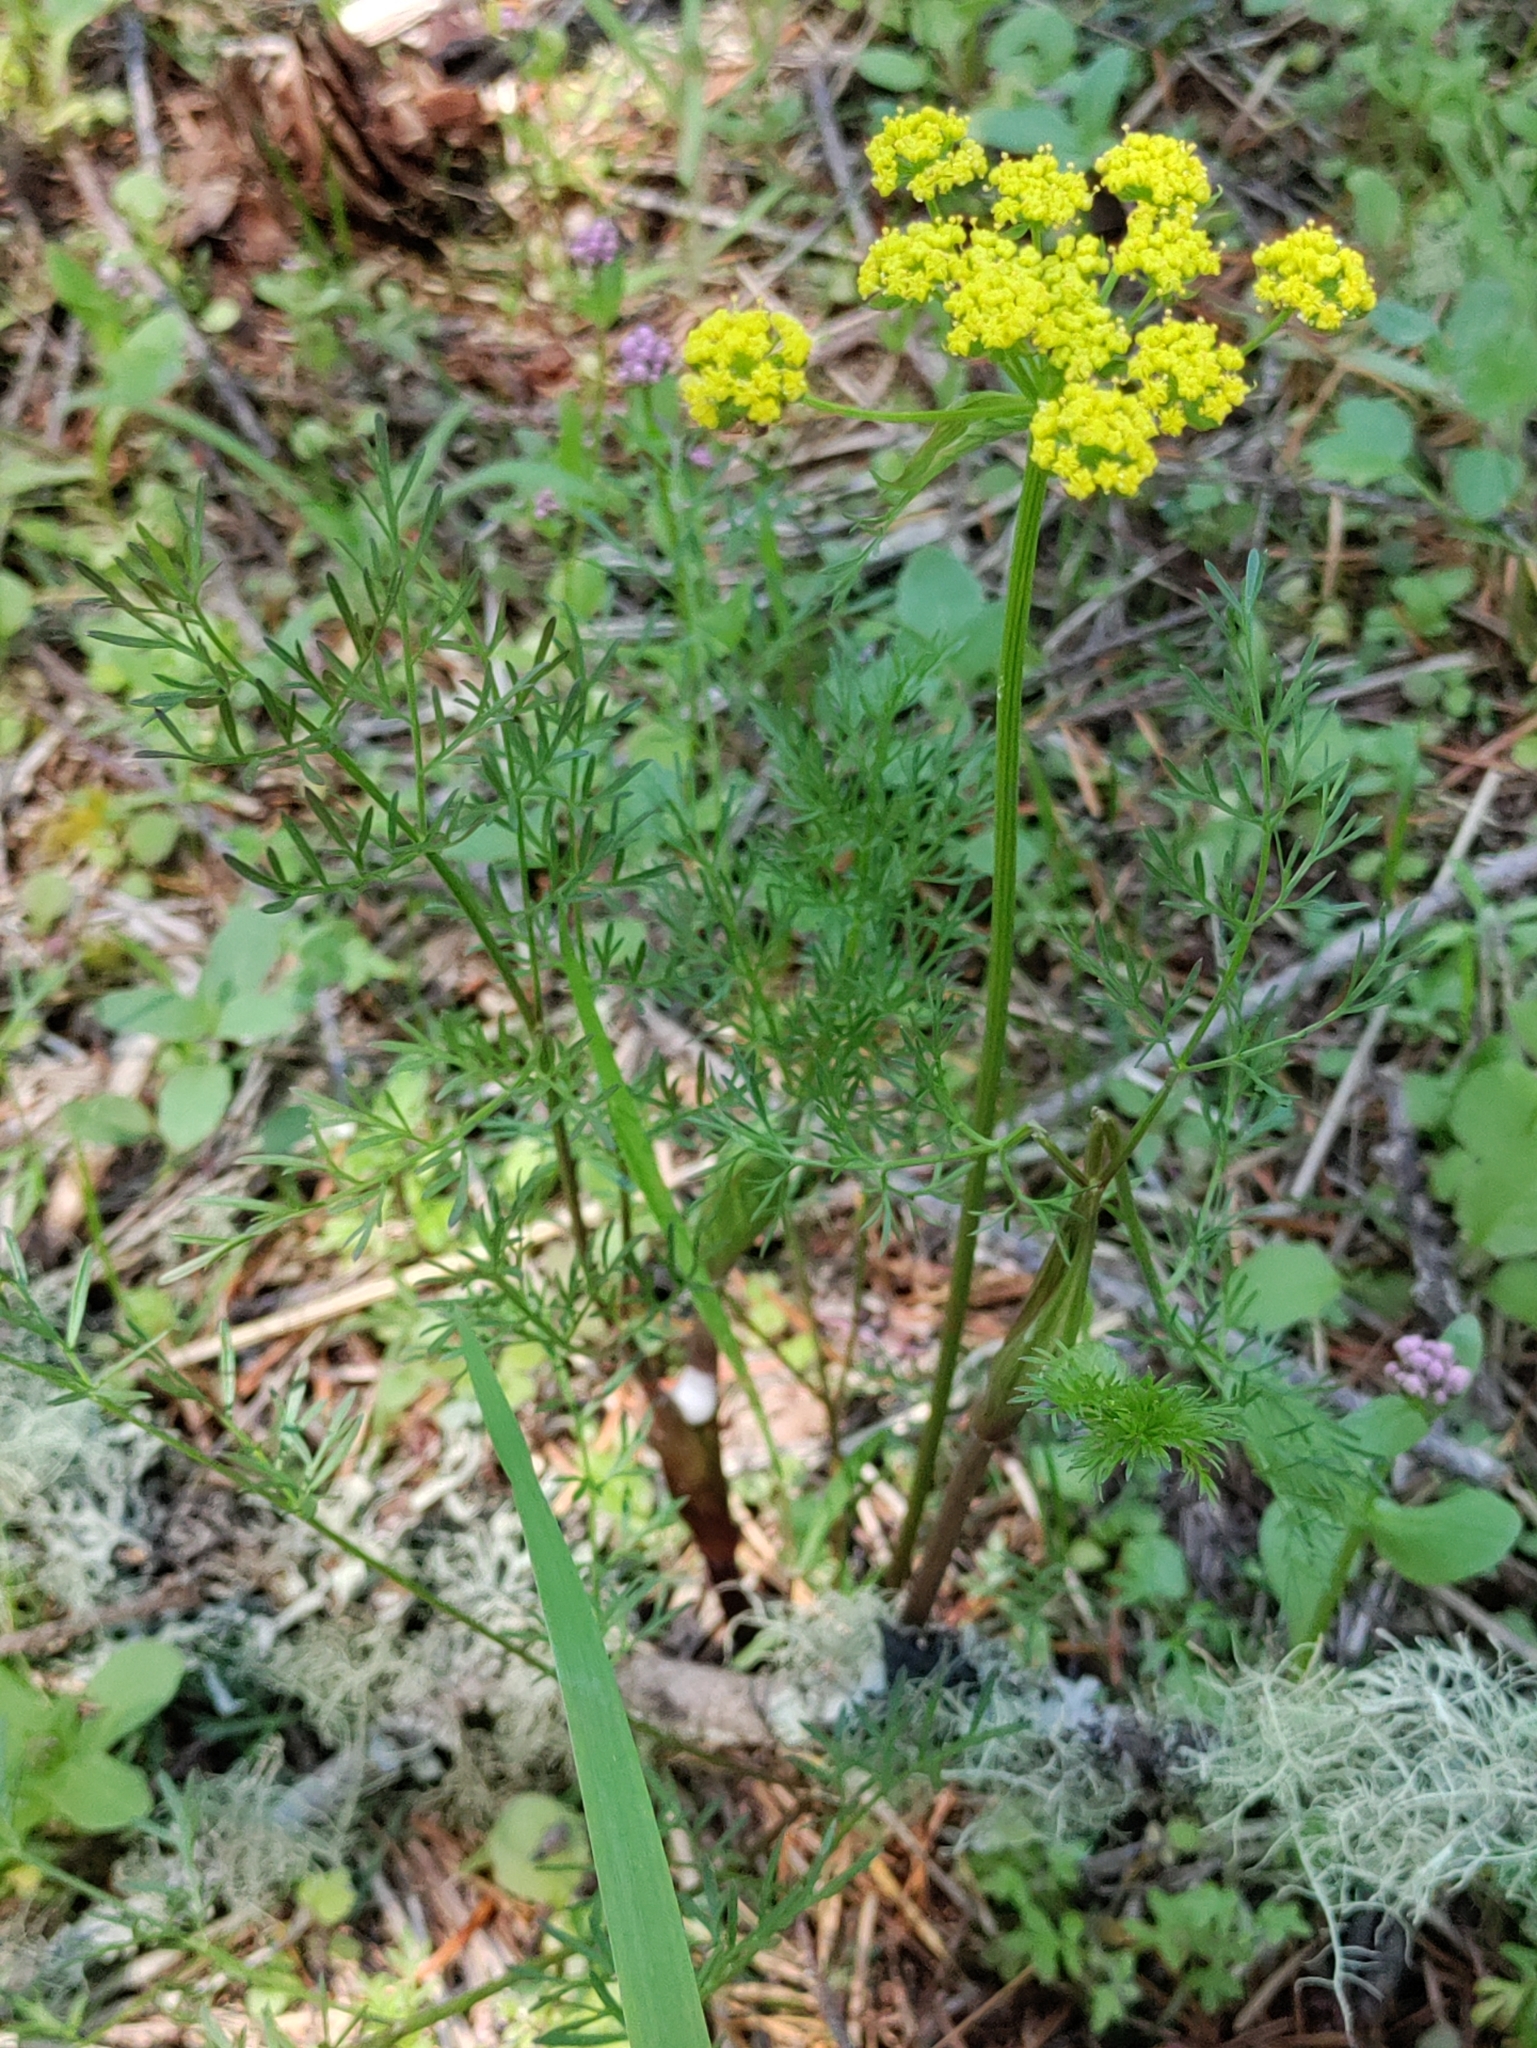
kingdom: Plantae
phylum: Tracheophyta
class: Magnoliopsida
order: Apiales
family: Apiaceae
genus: Lomatium
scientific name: Lomatium utriculatum
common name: Fine-leaf desert-parsley
